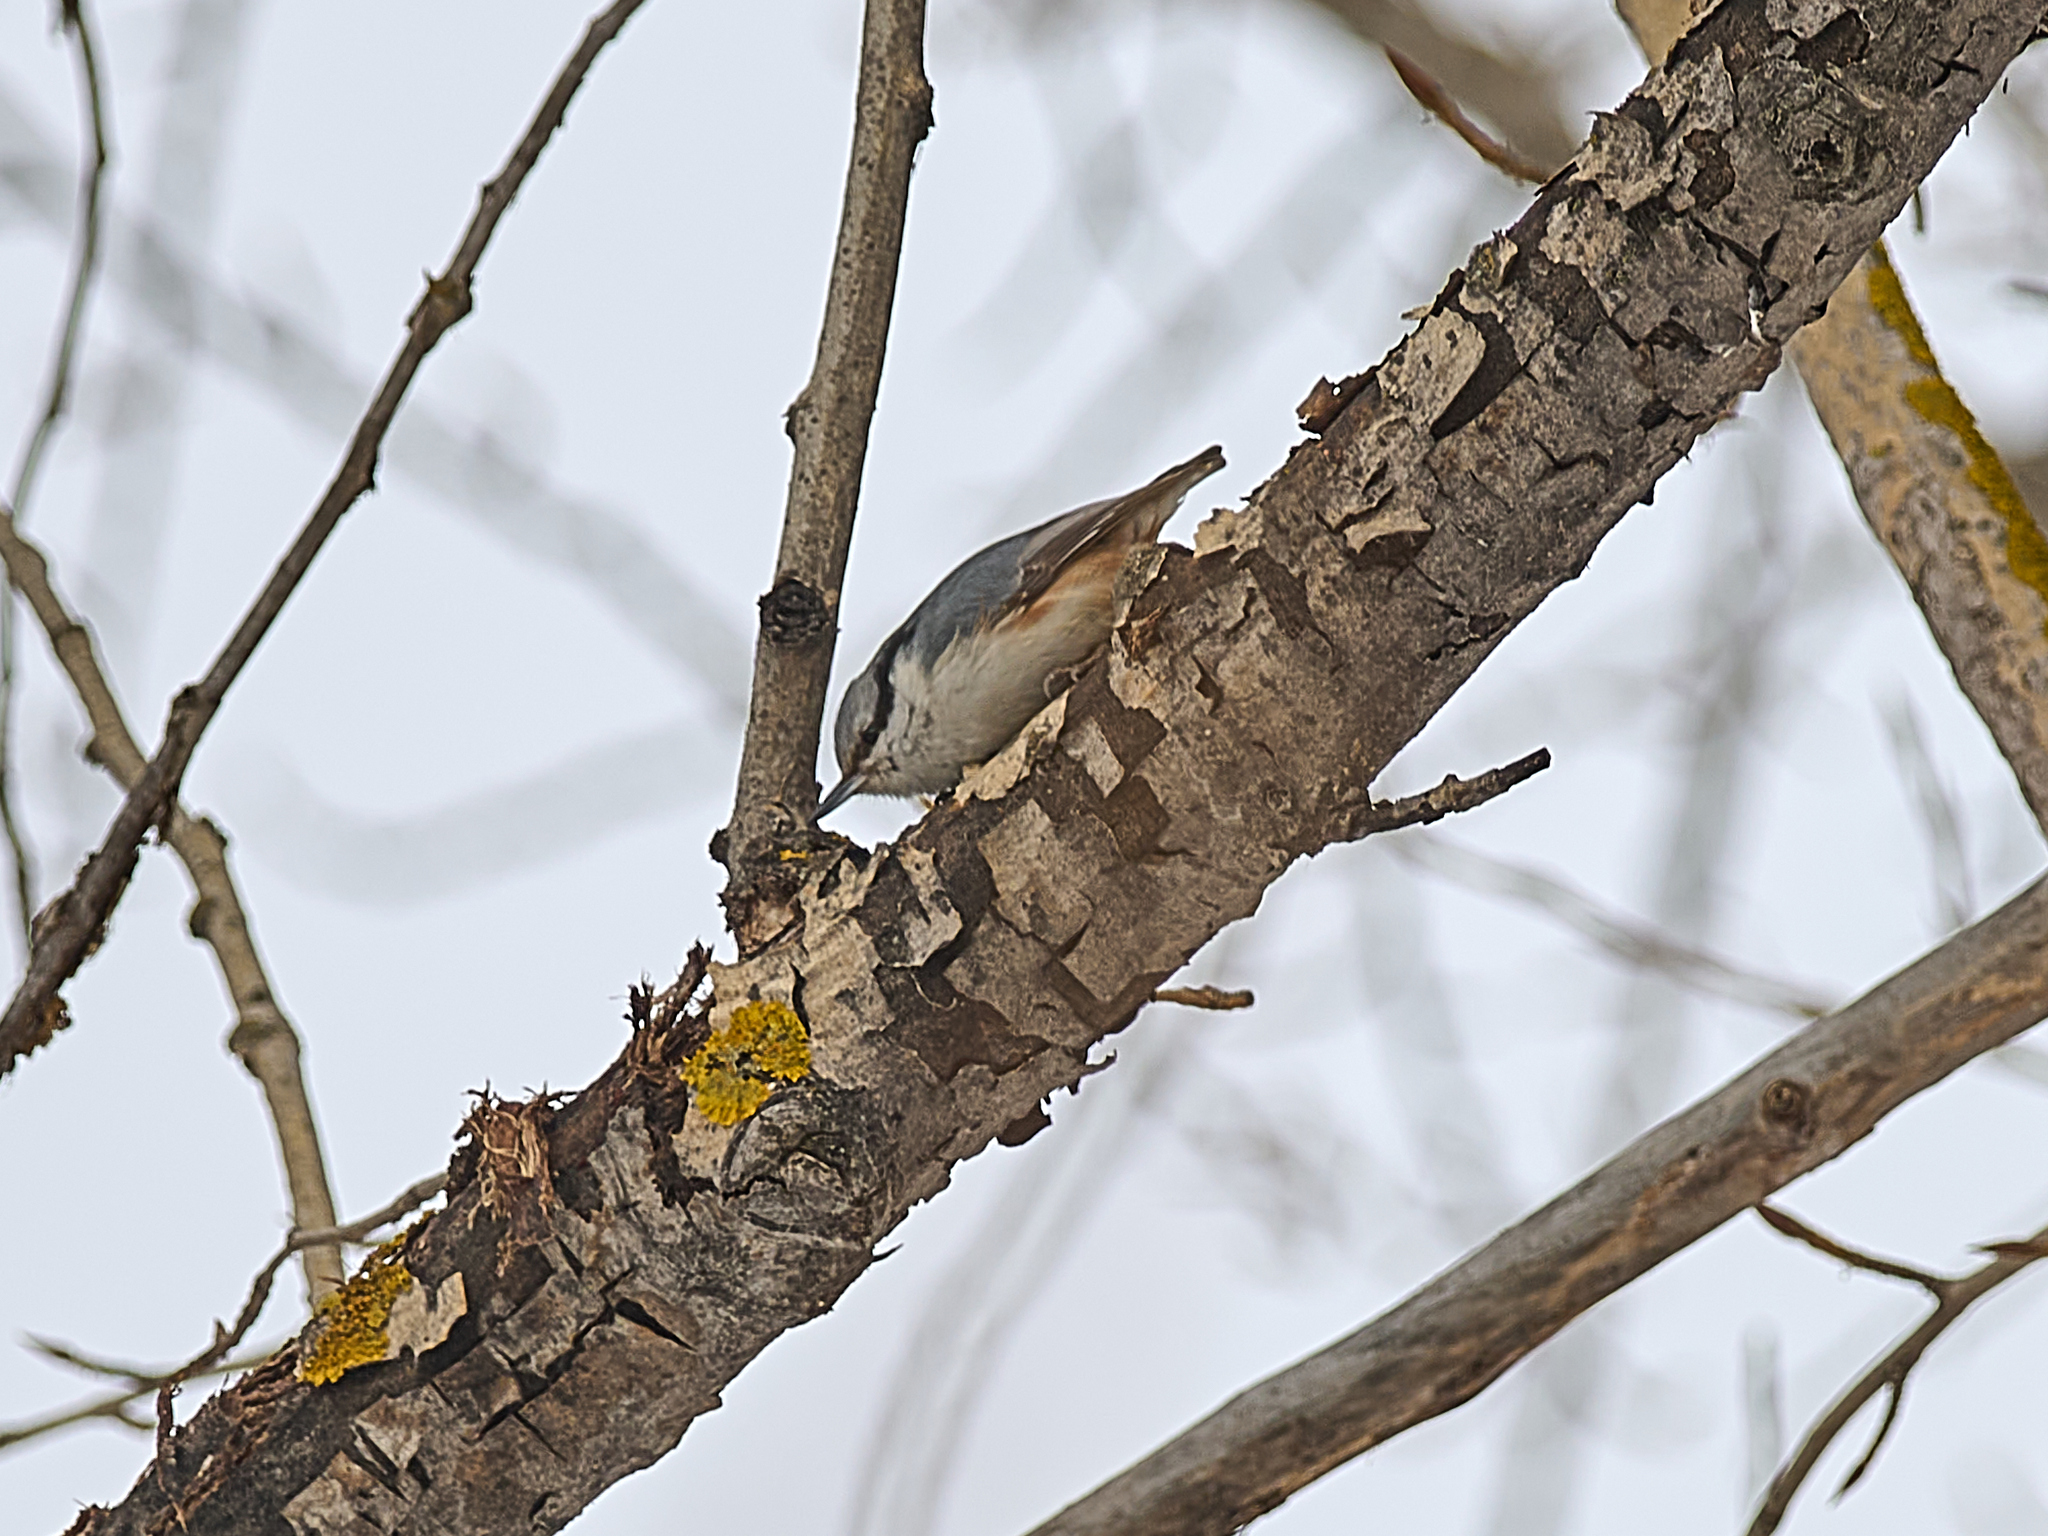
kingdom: Animalia
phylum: Chordata
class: Aves
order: Passeriformes
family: Sittidae
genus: Sitta
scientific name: Sitta europaea
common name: Eurasian nuthatch
